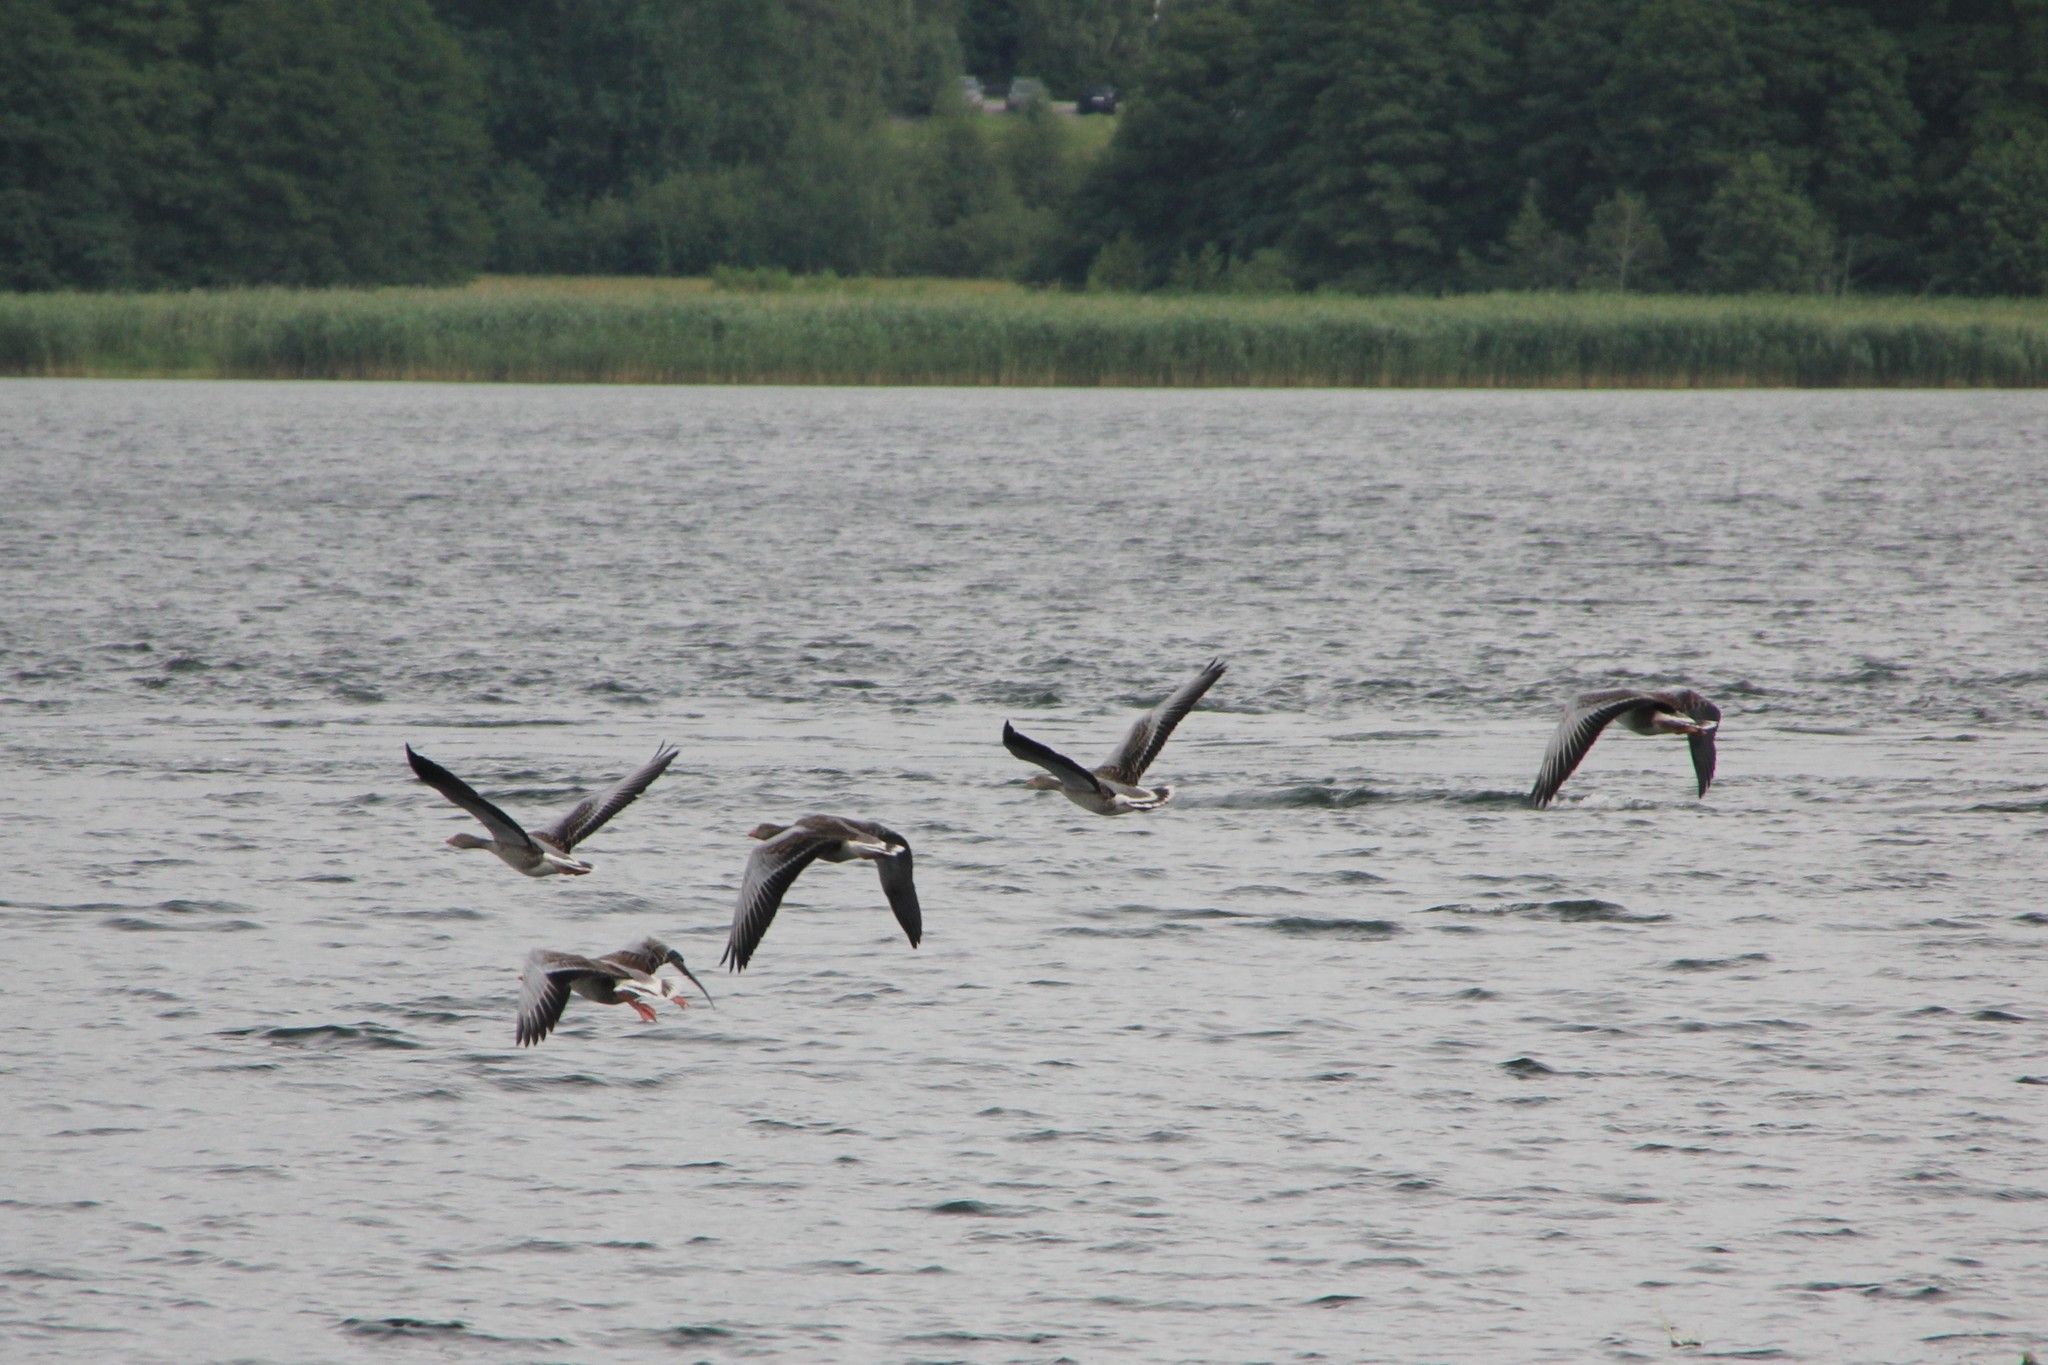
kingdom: Animalia
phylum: Chordata
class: Aves
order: Anseriformes
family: Anatidae
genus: Anser
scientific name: Anser anser
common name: Greylag goose
